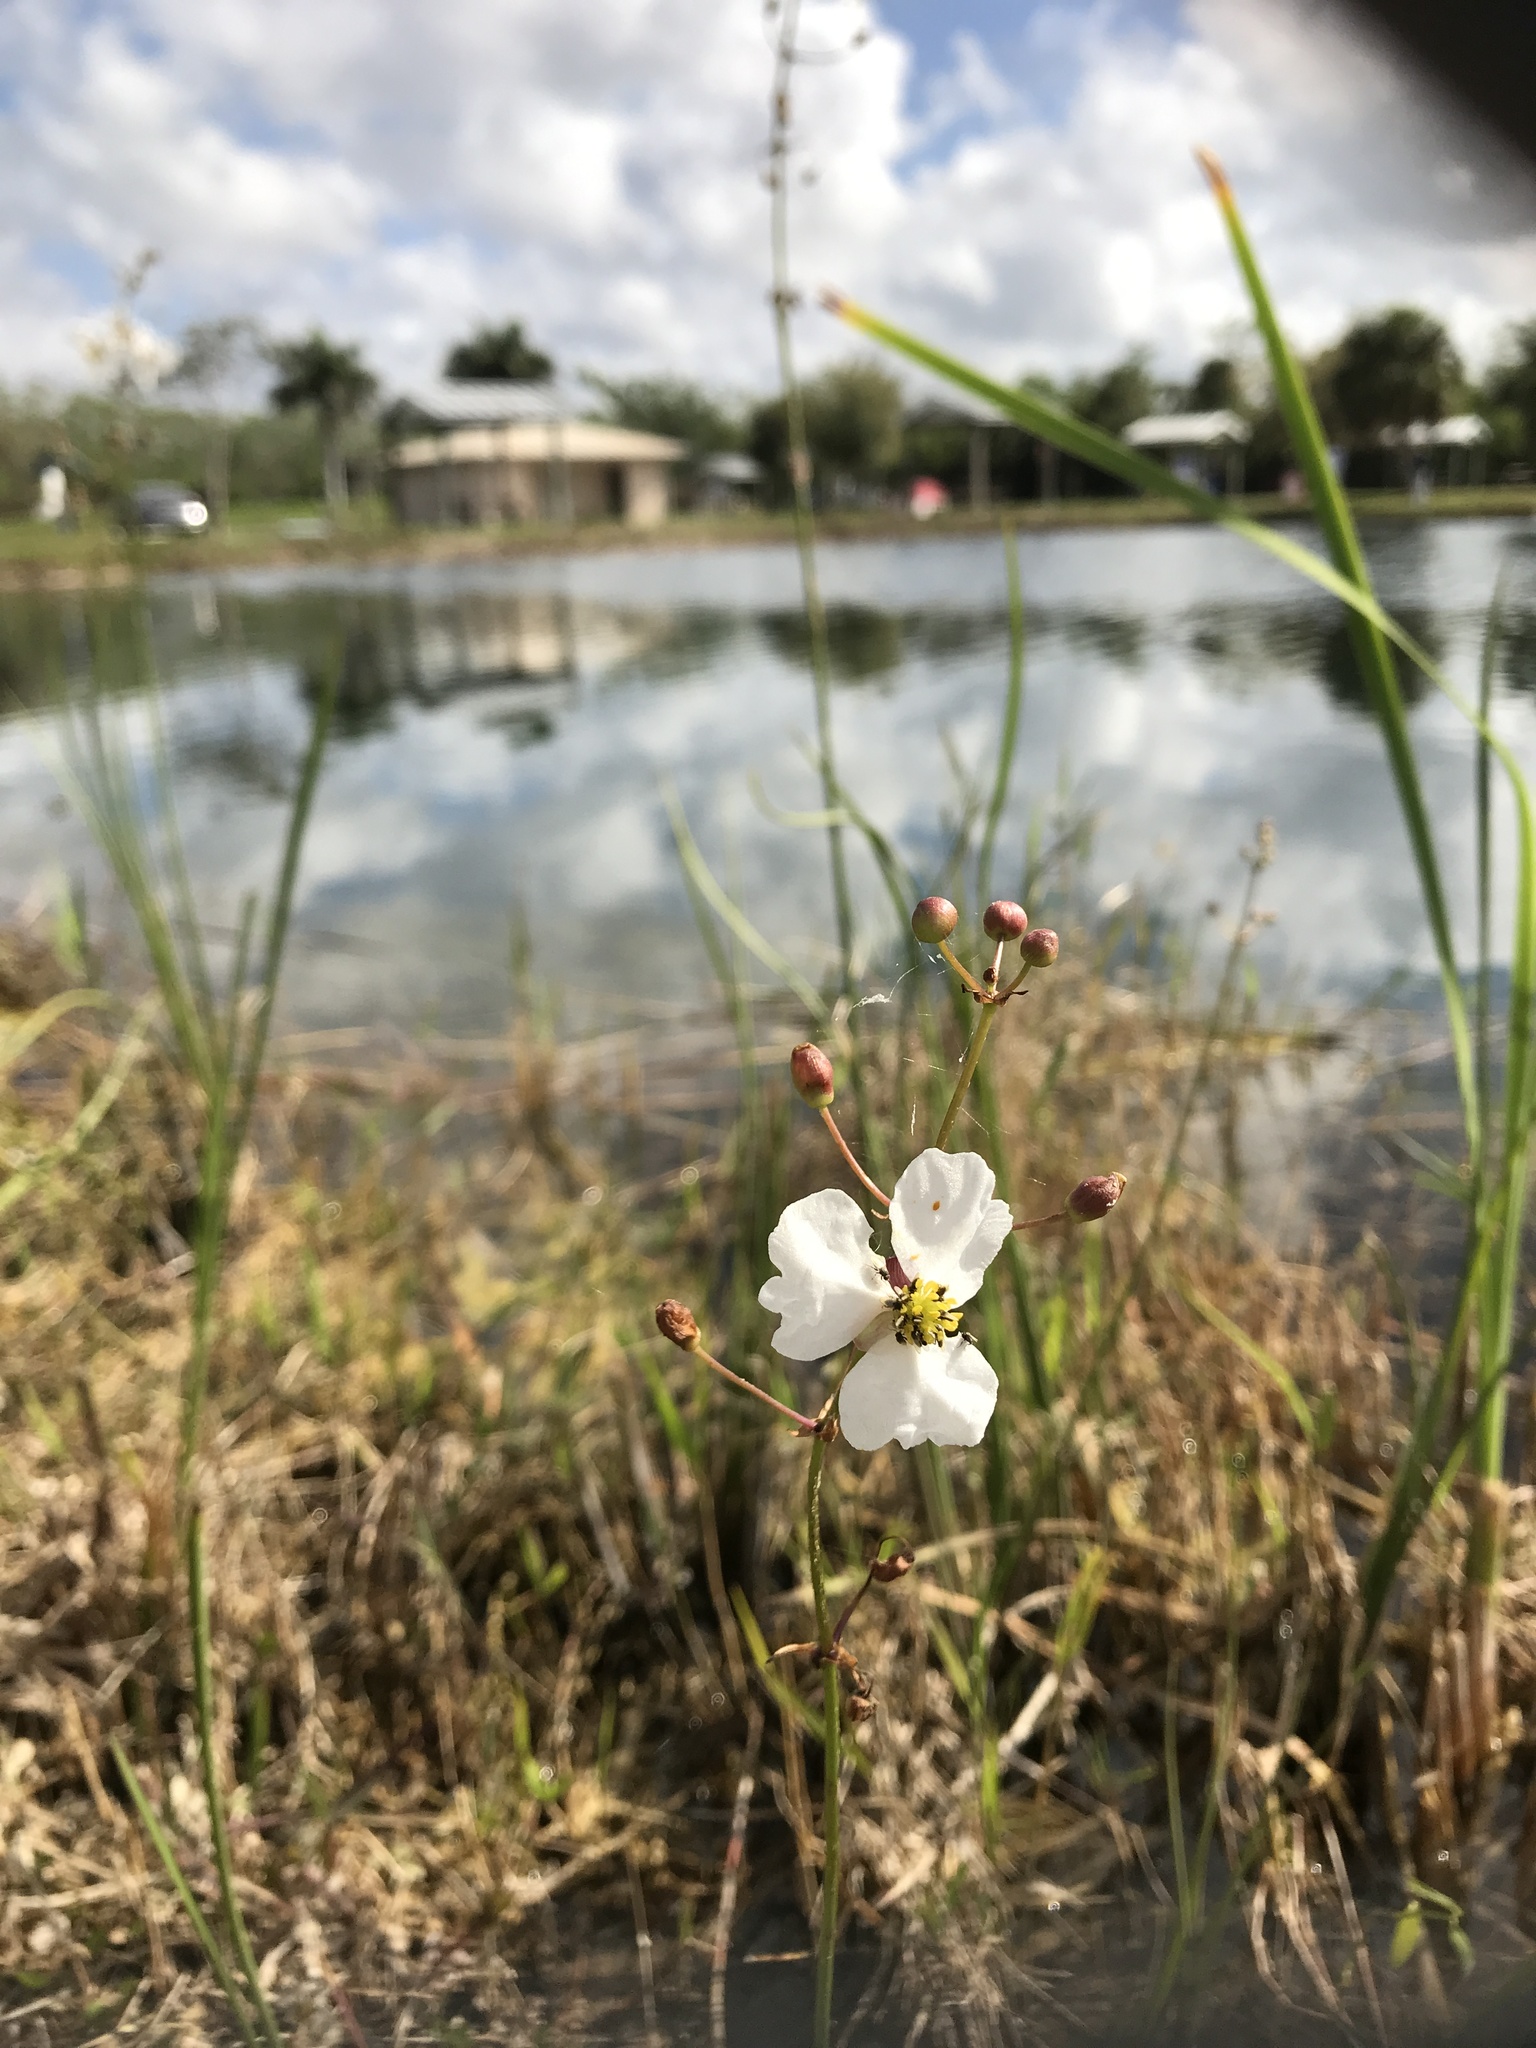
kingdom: Plantae
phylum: Tracheophyta
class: Liliopsida
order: Alismatales
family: Alismataceae
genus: Sagittaria
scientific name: Sagittaria lancifolia
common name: Lance-leaf arrowhead
